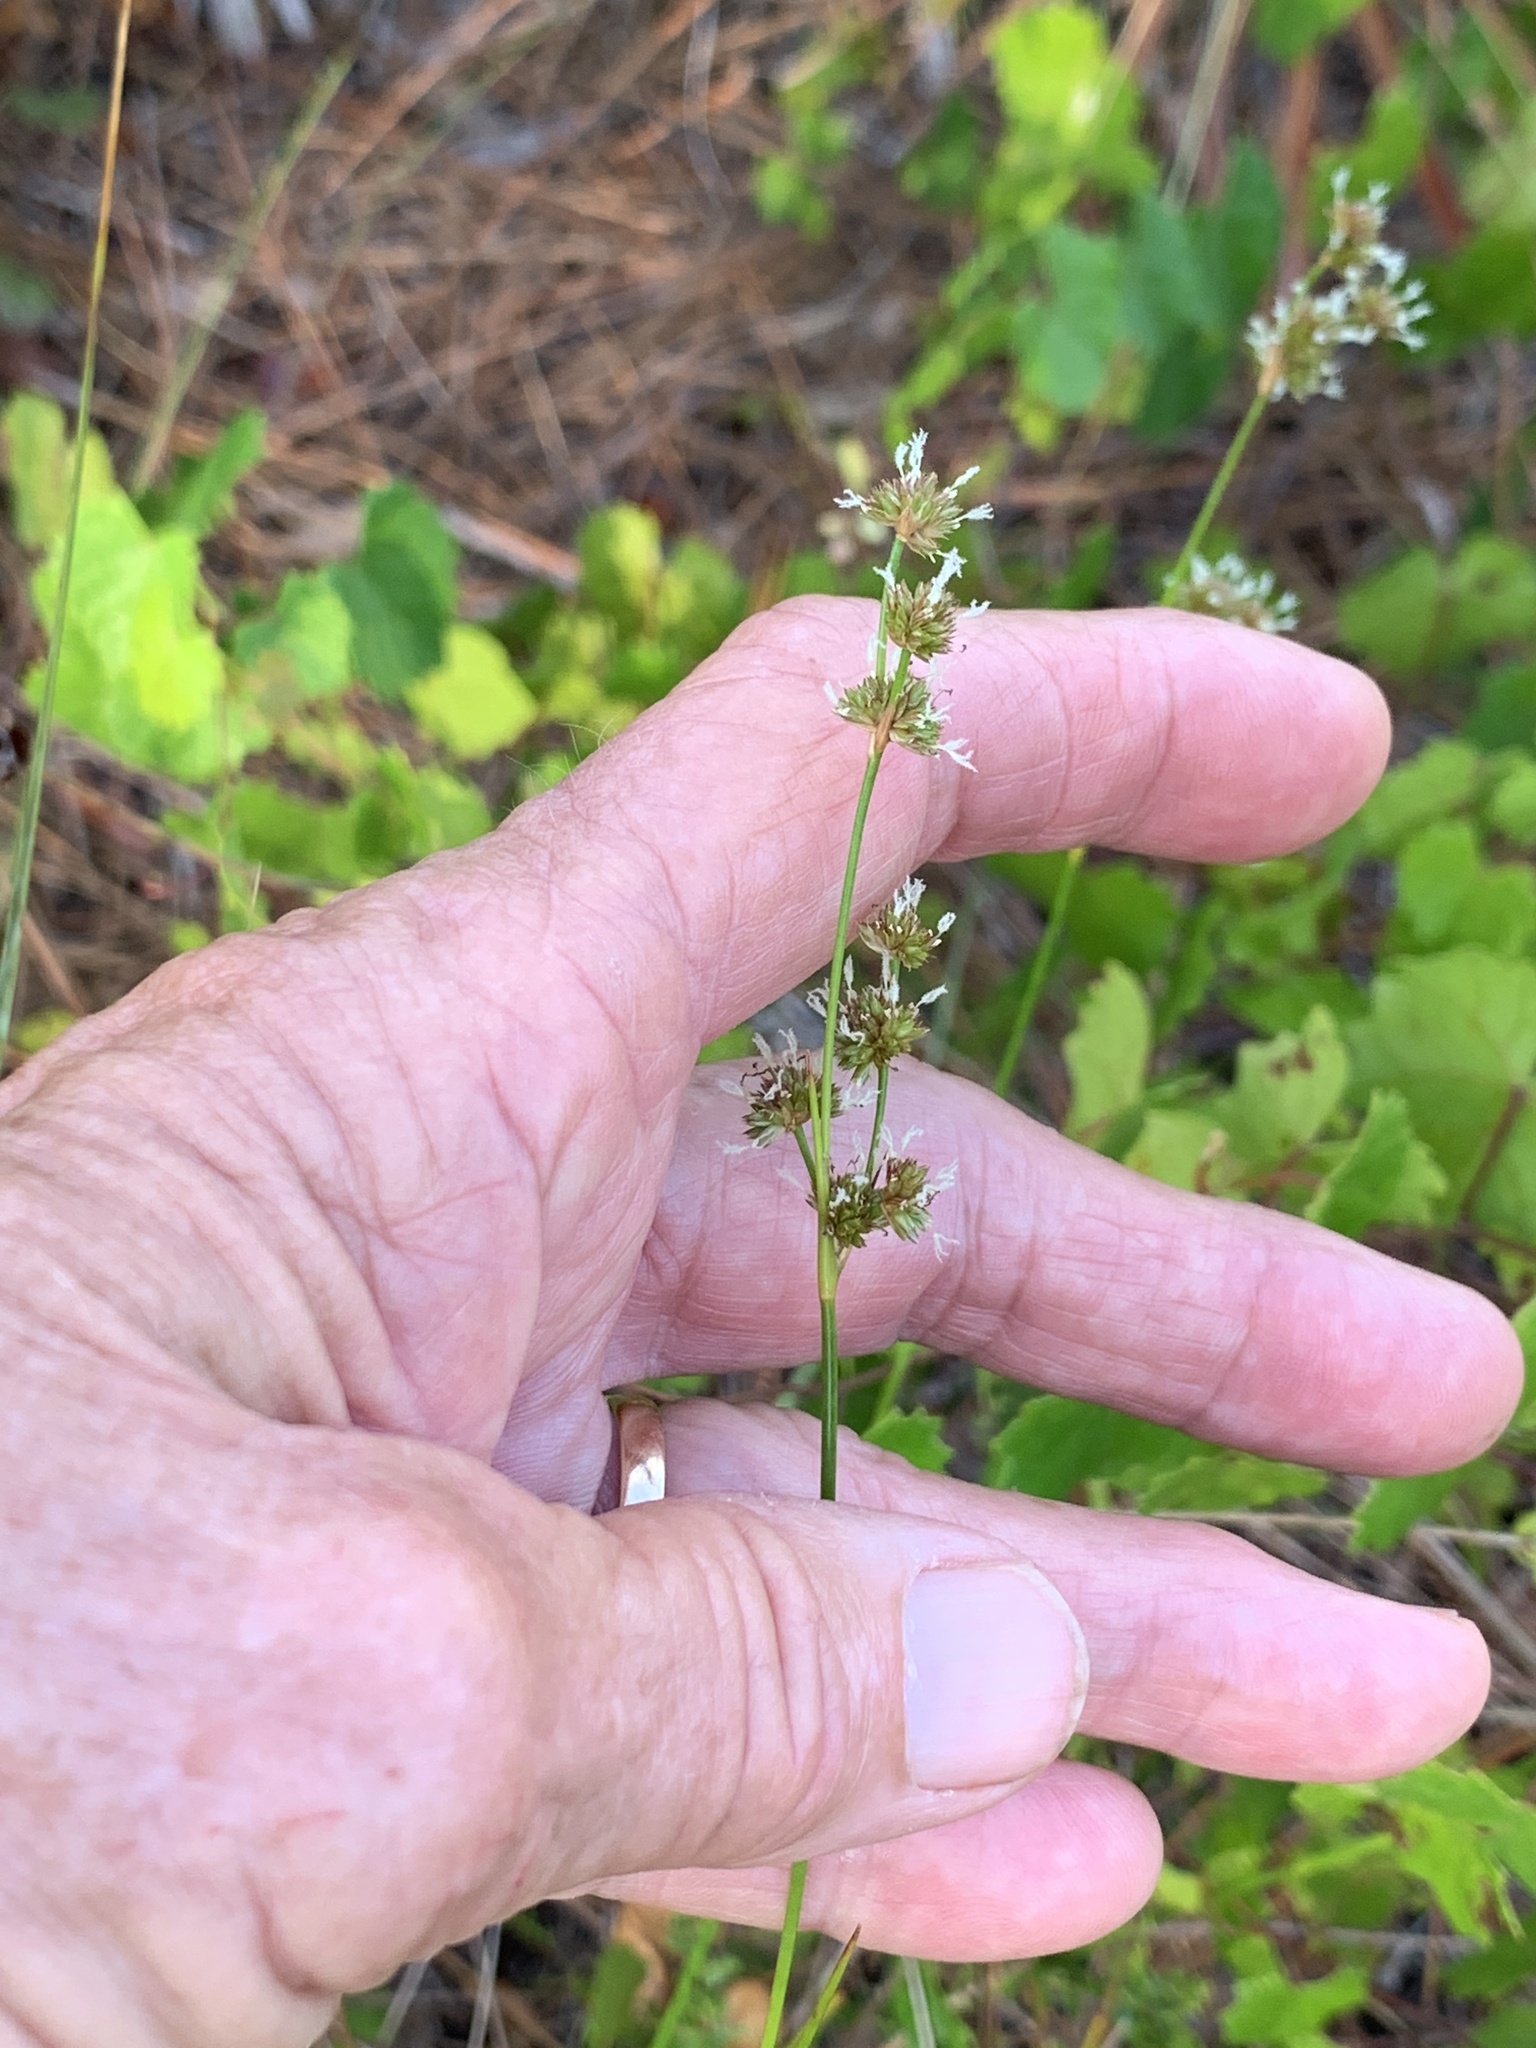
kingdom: Plantae
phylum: Tracheophyta
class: Liliopsida
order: Poales
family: Juncaceae
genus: Juncus
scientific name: Juncus scirpoides
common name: Needlepod rush
